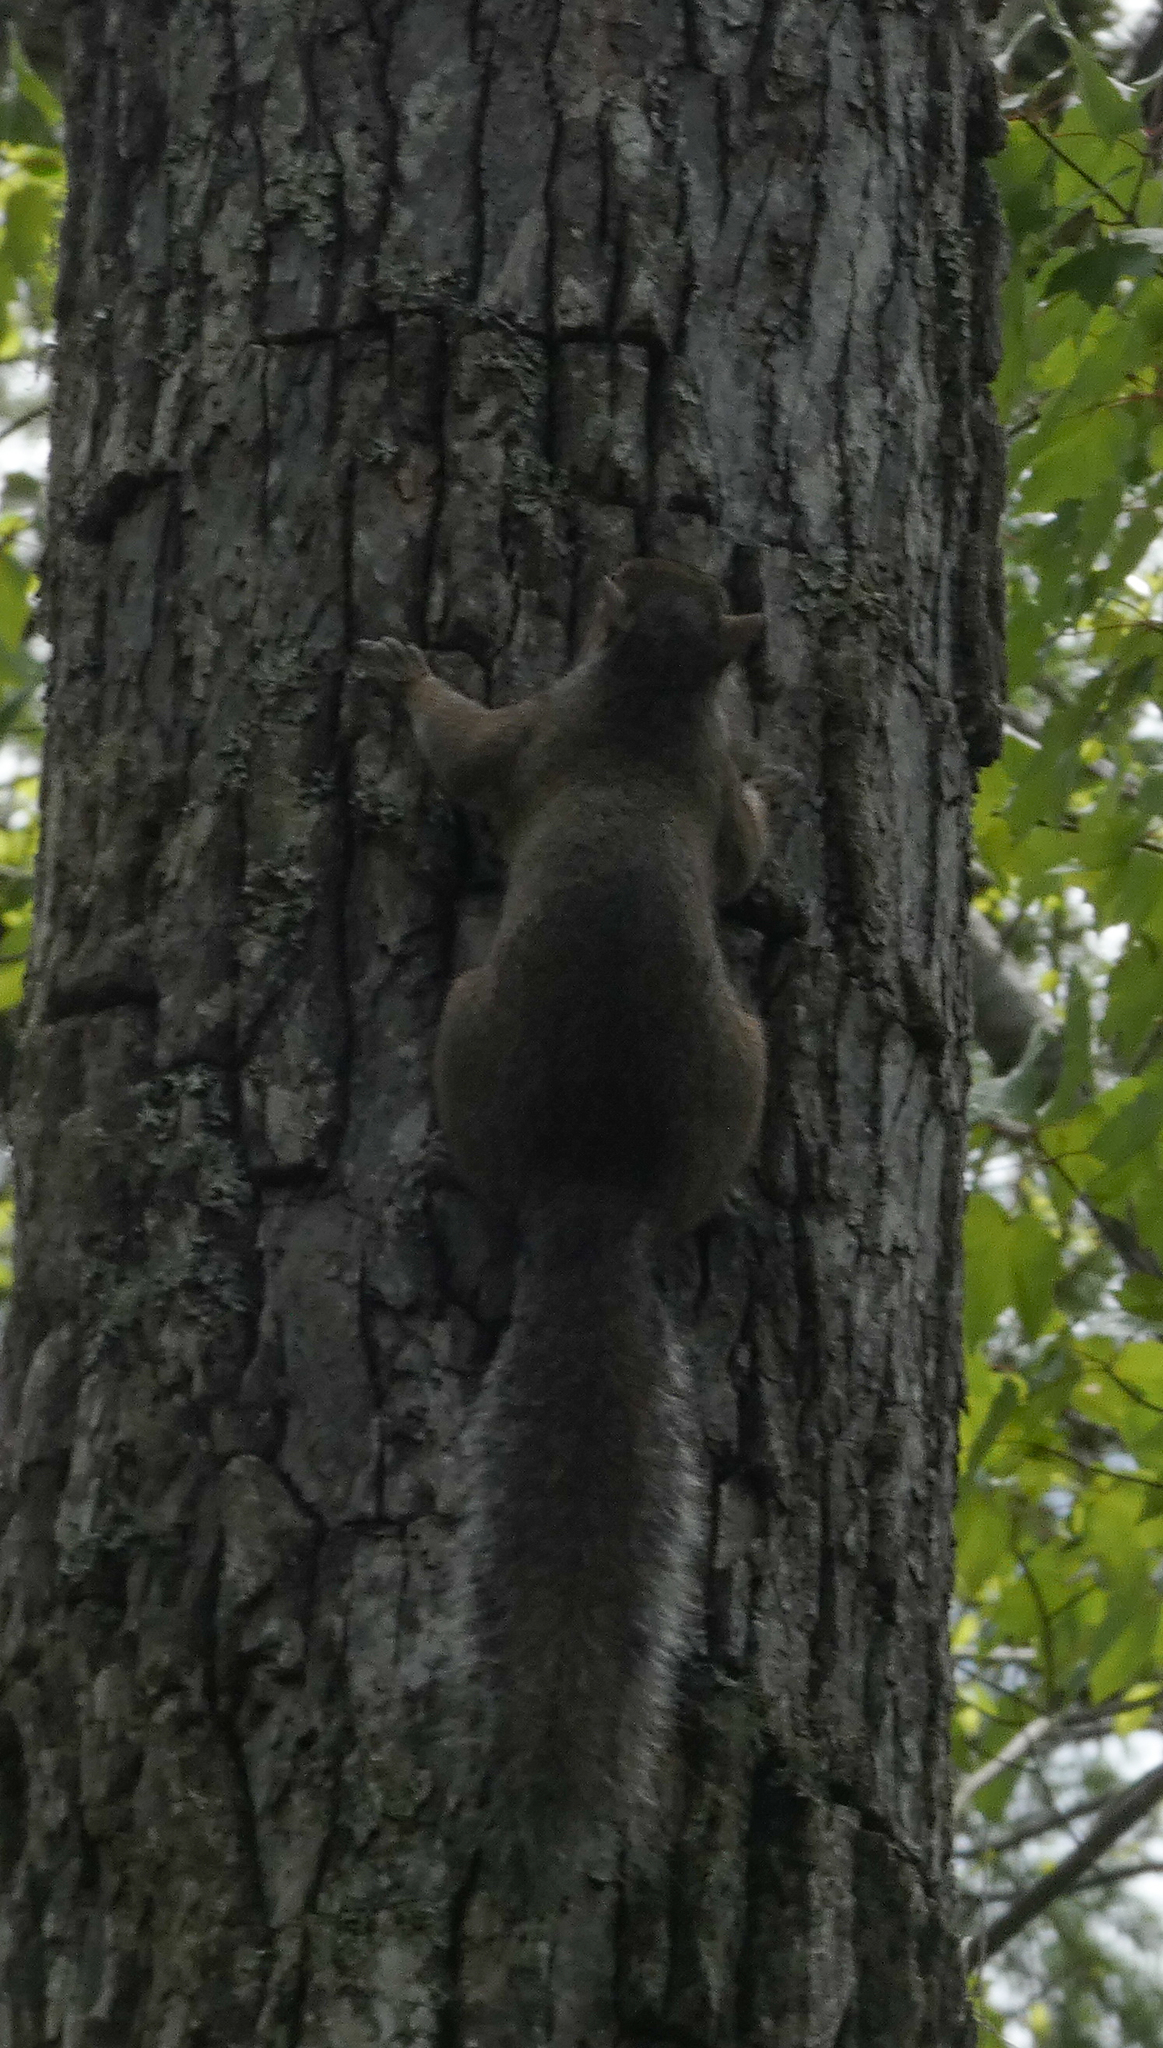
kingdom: Animalia
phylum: Chordata
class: Mammalia
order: Rodentia
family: Sciuridae
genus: Sciurus
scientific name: Sciurus carolinensis
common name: Eastern gray squirrel
